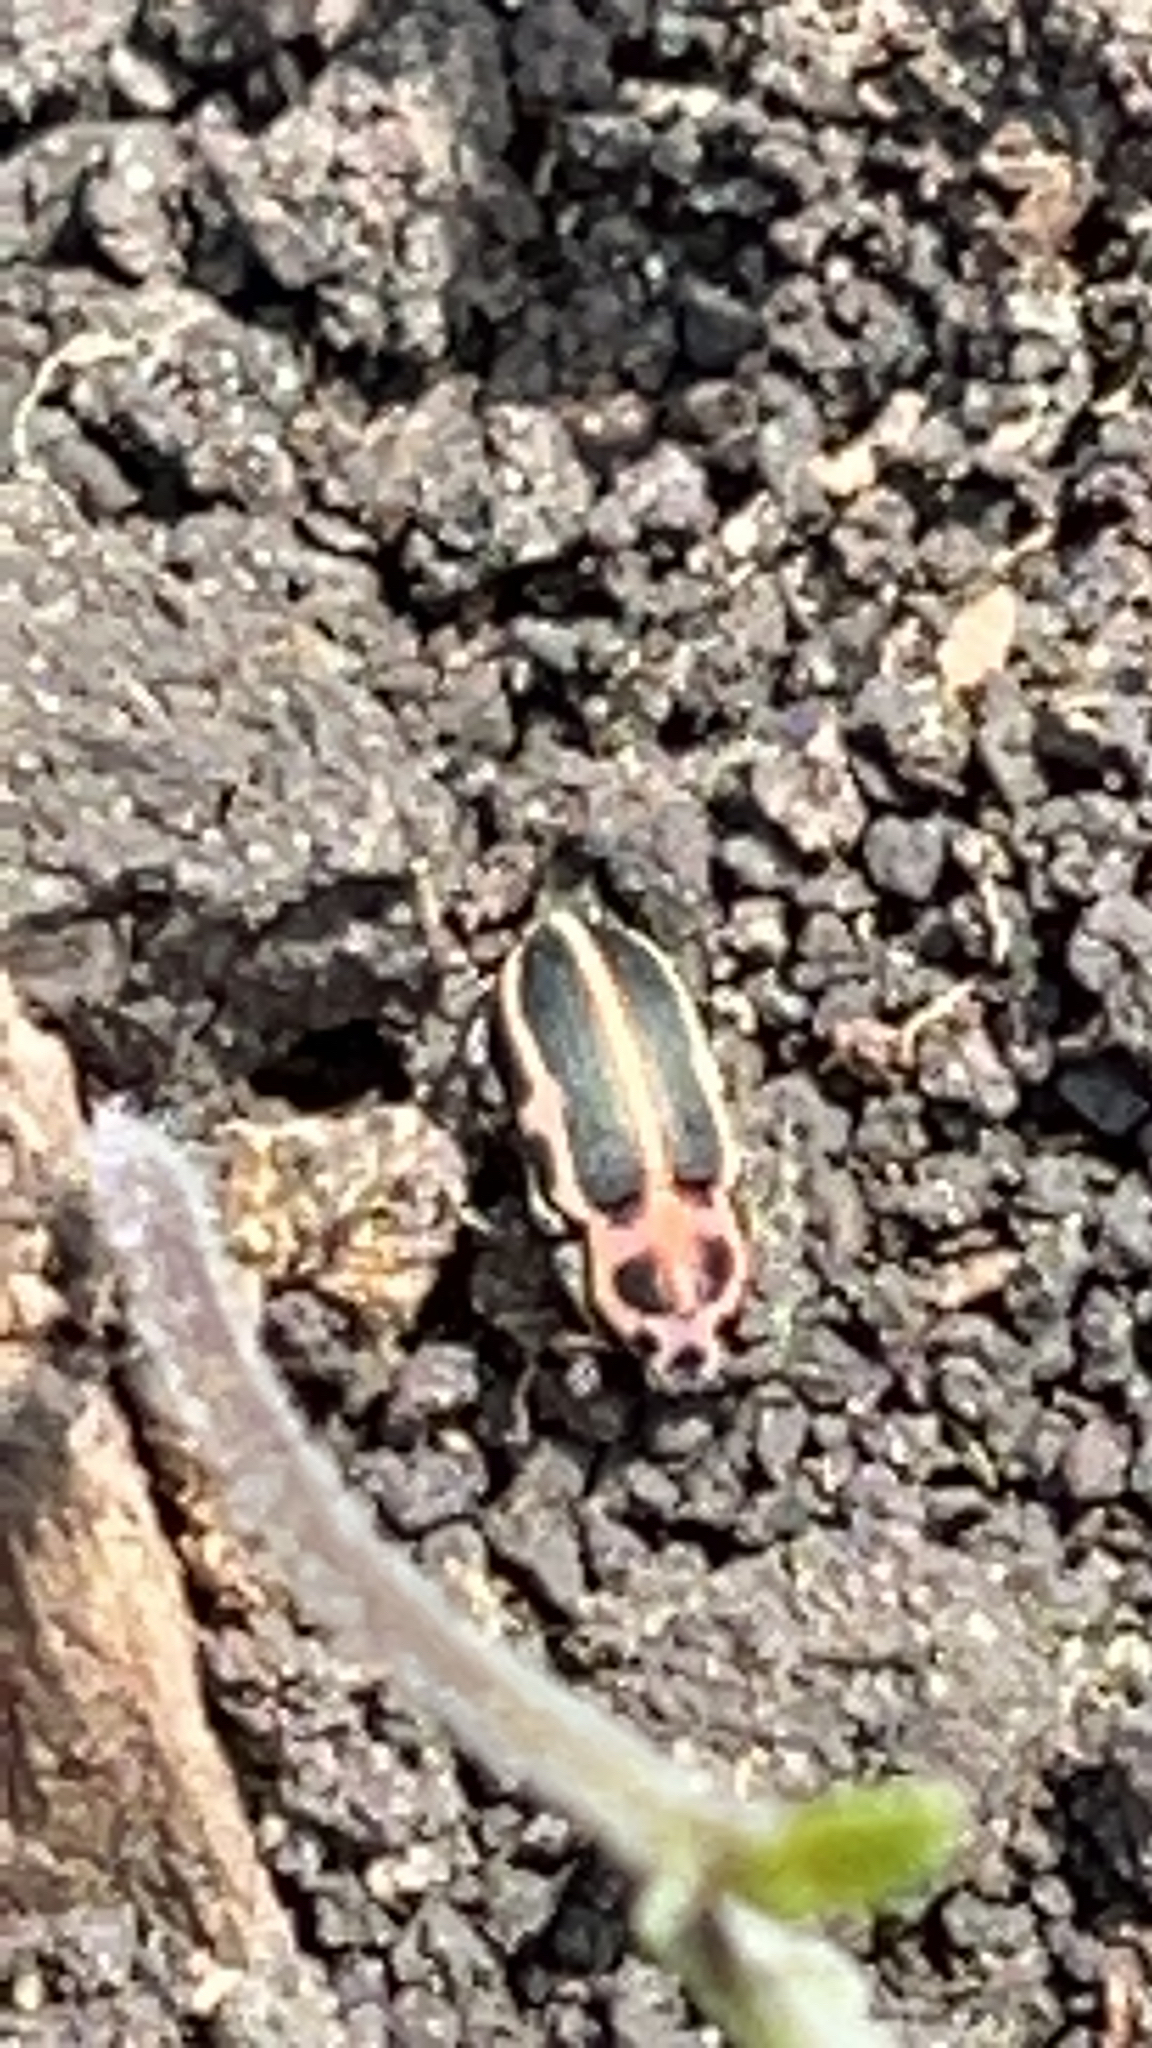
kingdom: Animalia
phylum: Arthropoda
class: Insecta
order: Coleoptera
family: Curculionidae
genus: Eudiagogus
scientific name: Eudiagogus pulcher
